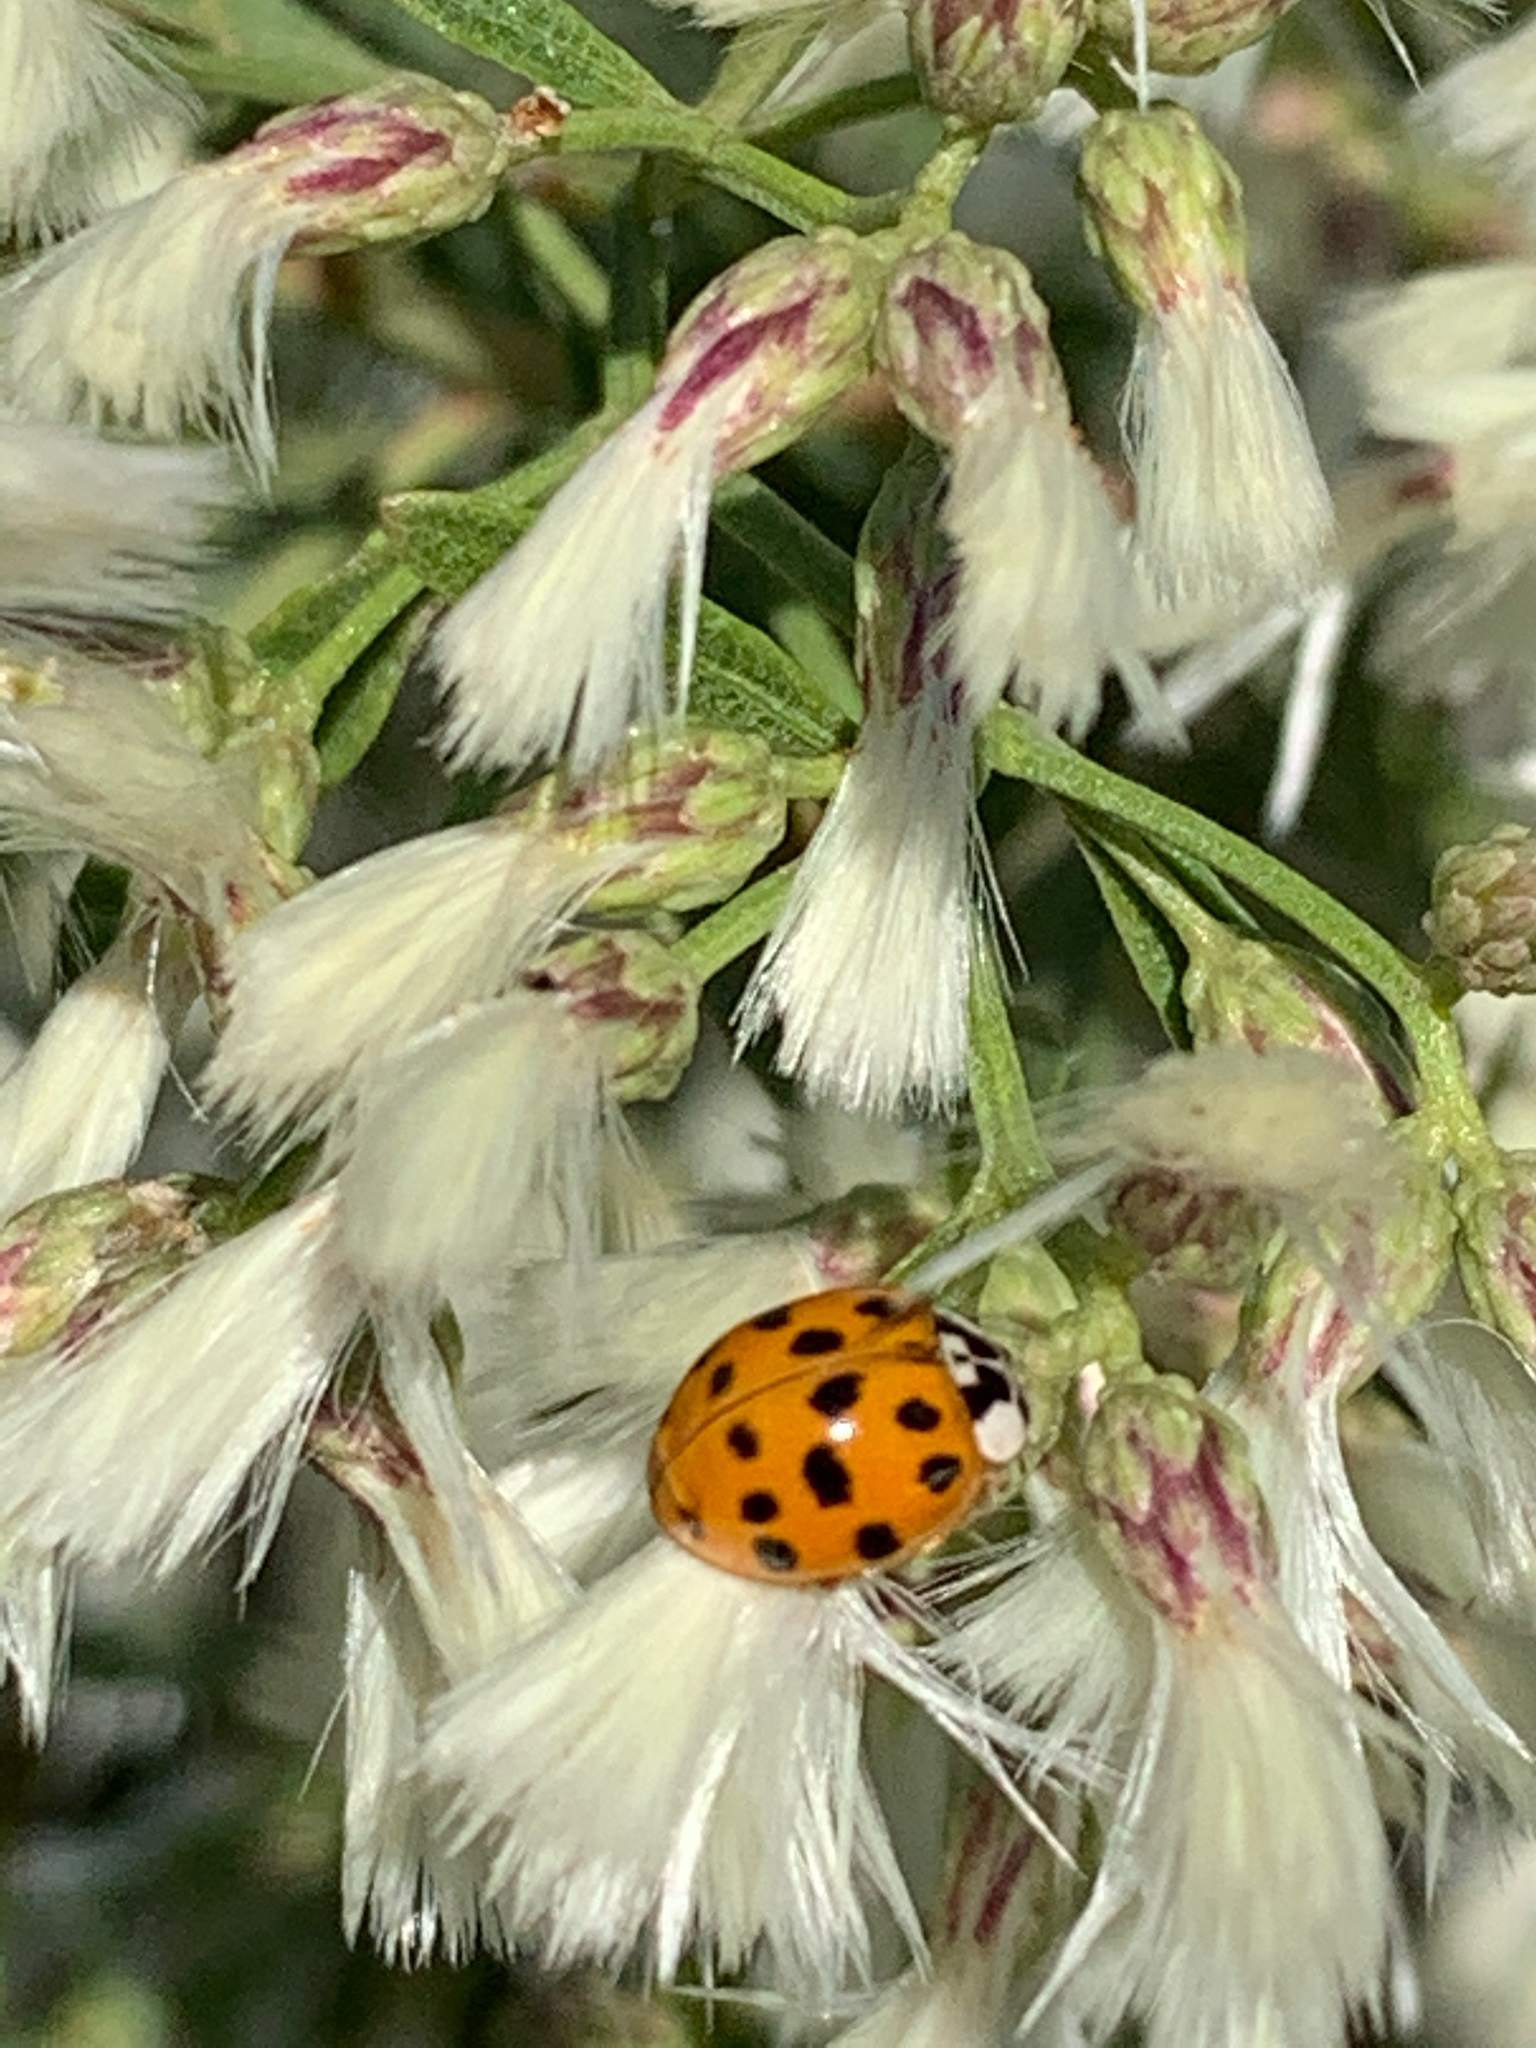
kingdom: Animalia
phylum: Arthropoda
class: Insecta
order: Coleoptera
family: Coccinellidae
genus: Harmonia
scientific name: Harmonia axyridis
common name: Harlequin ladybird
